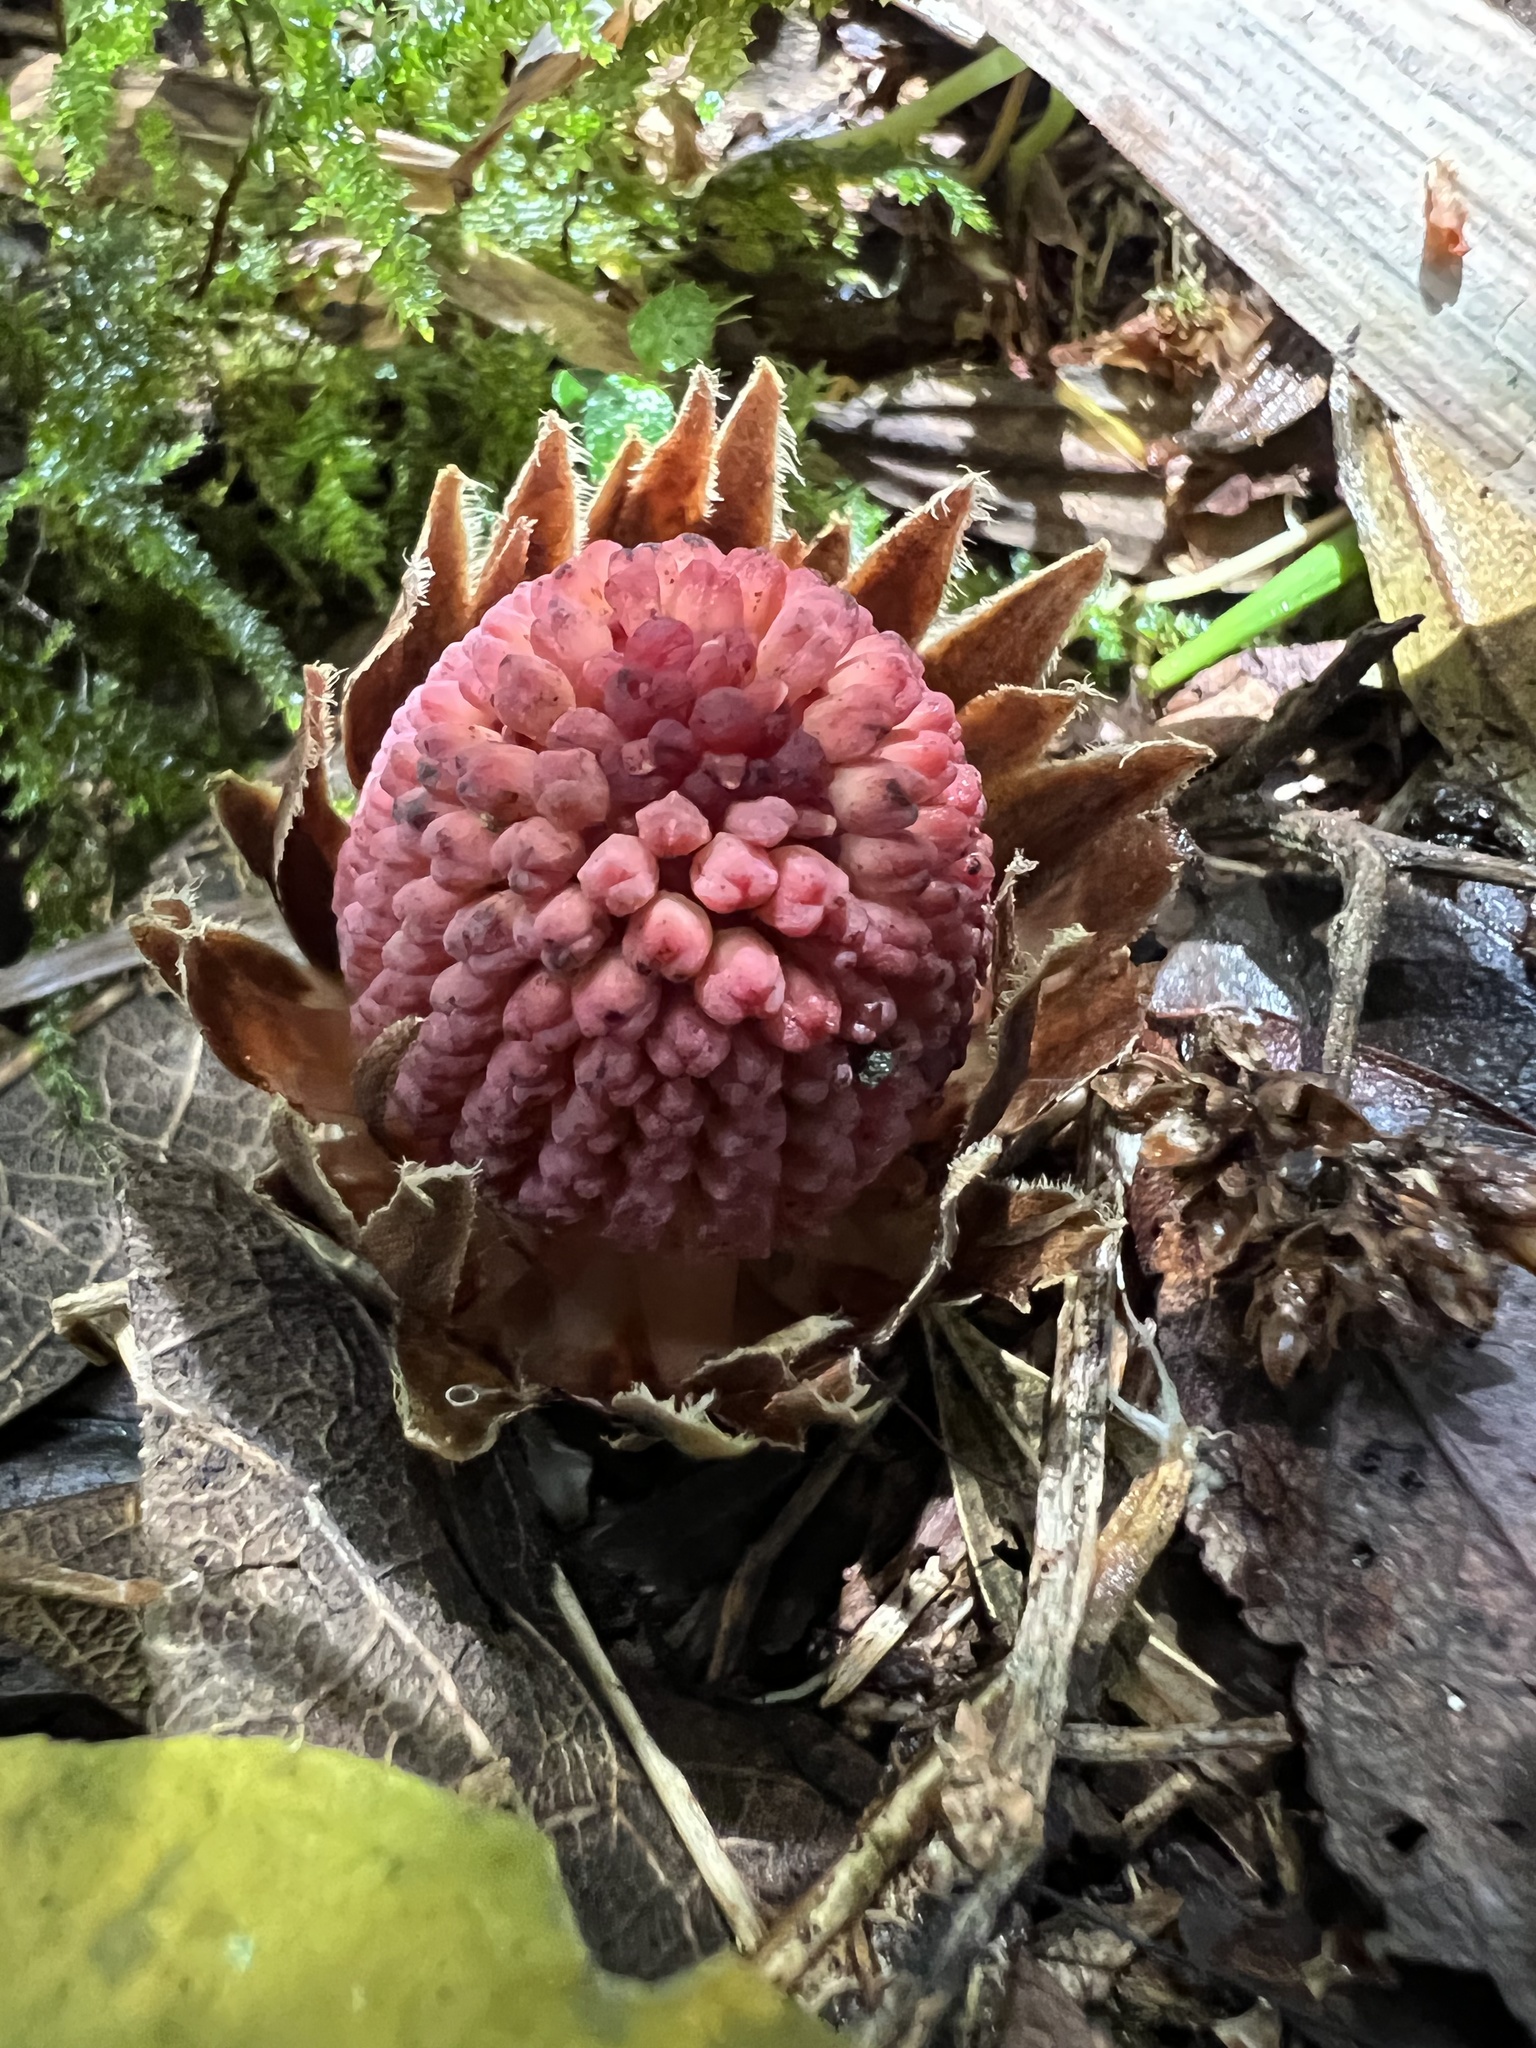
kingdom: Plantae
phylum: Tracheophyta
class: Magnoliopsida
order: Santalales
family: Balanophoraceae
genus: Langsdorffia
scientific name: Langsdorffia hypogaea
